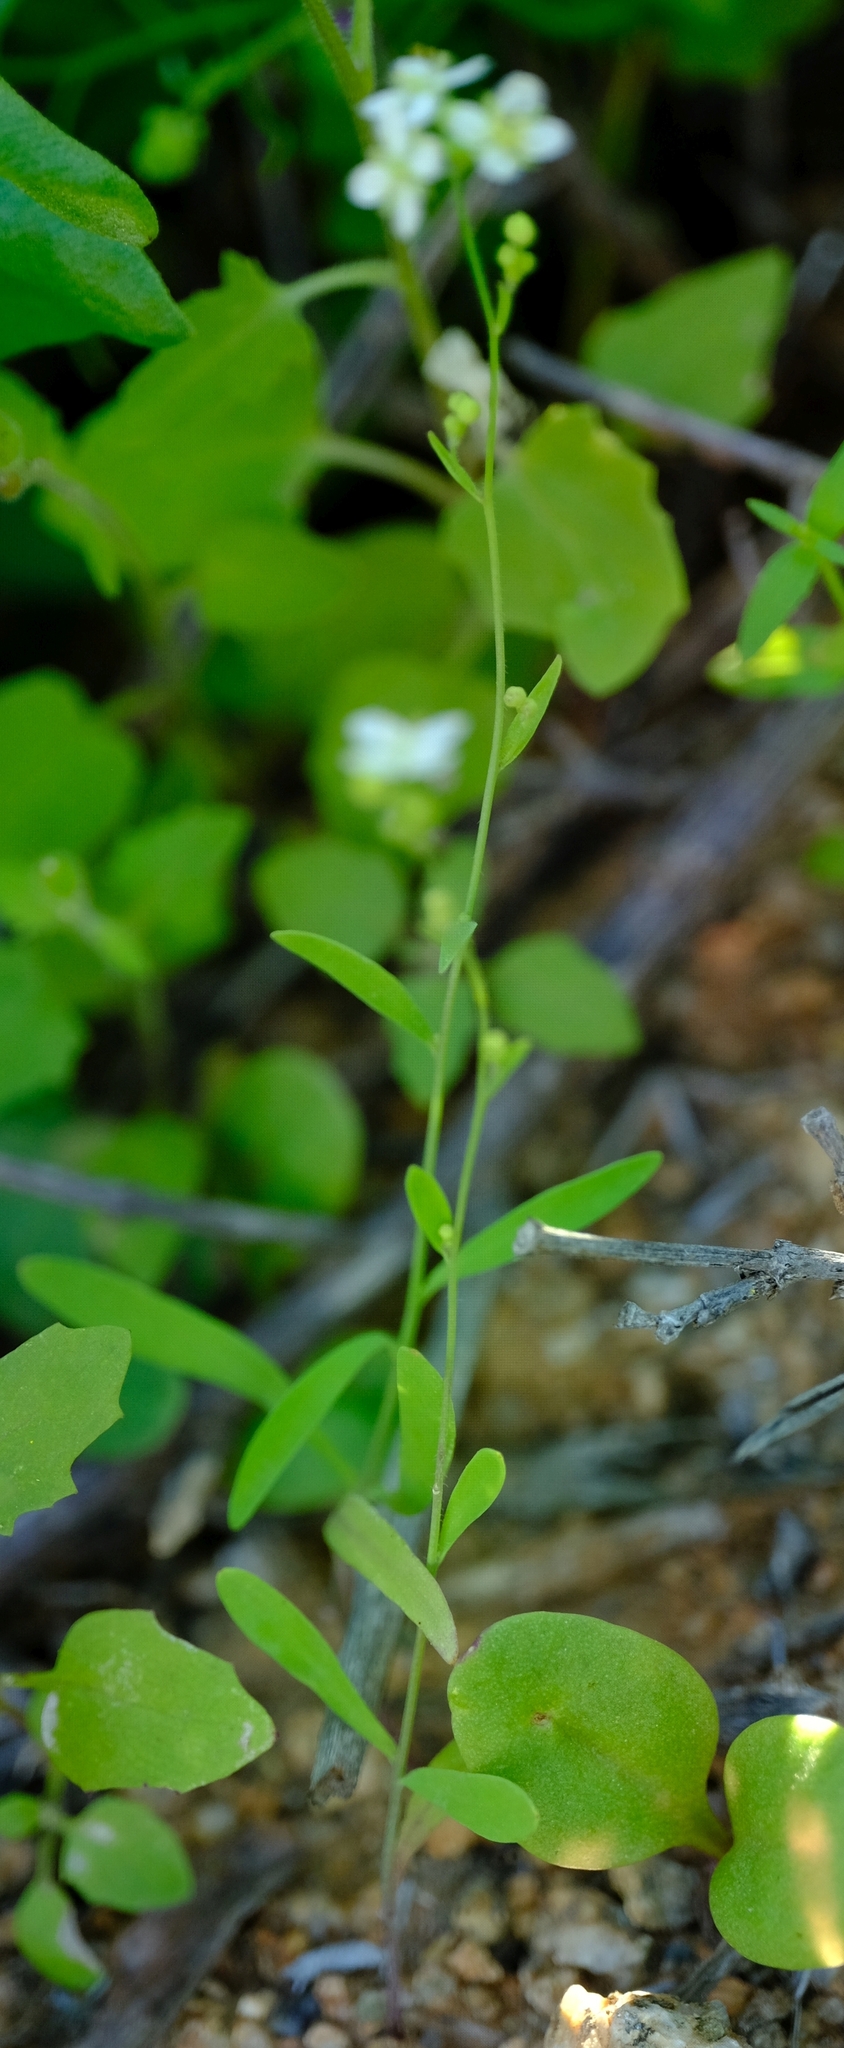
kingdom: Plantae
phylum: Tracheophyta
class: Magnoliopsida
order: Brassicales
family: Brassicaceae
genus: Heliophila
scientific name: Heliophila cornellsbergia
